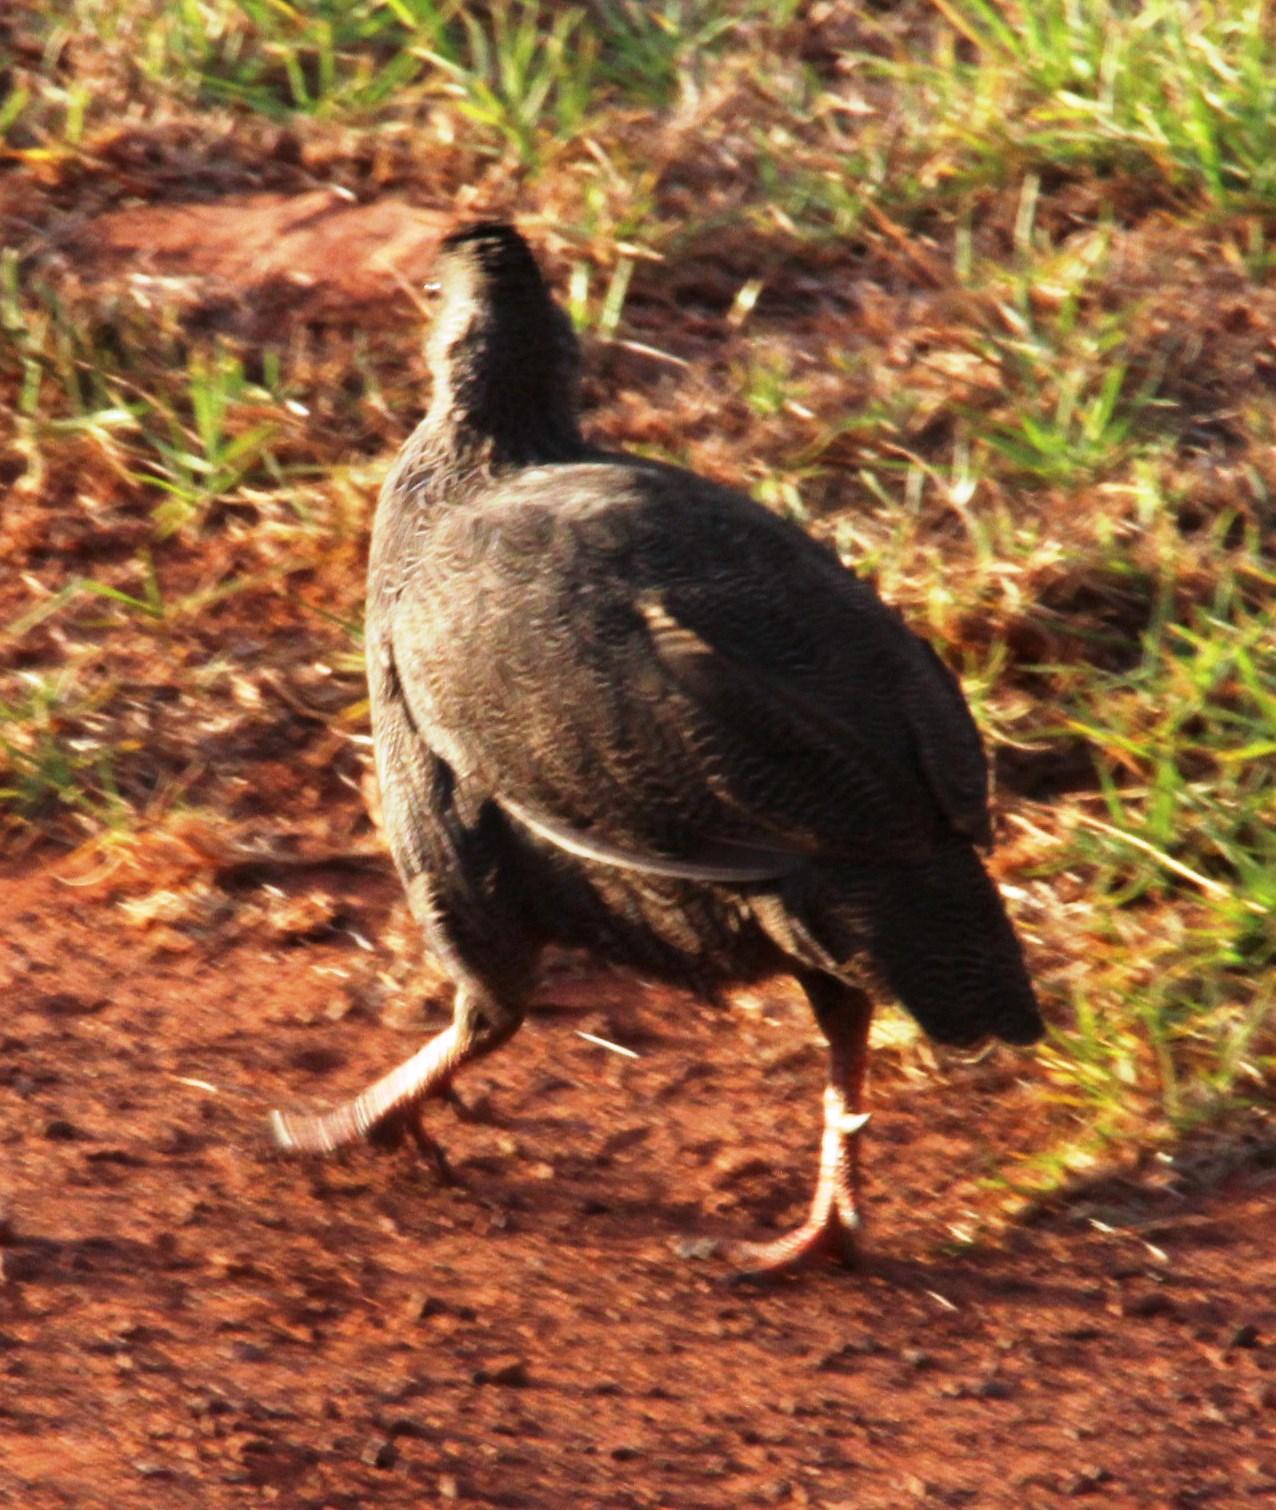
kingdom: Animalia
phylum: Chordata
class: Aves
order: Galliformes
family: Phasianidae
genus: Pternistis
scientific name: Pternistis capensis
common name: Cape spurfowl
